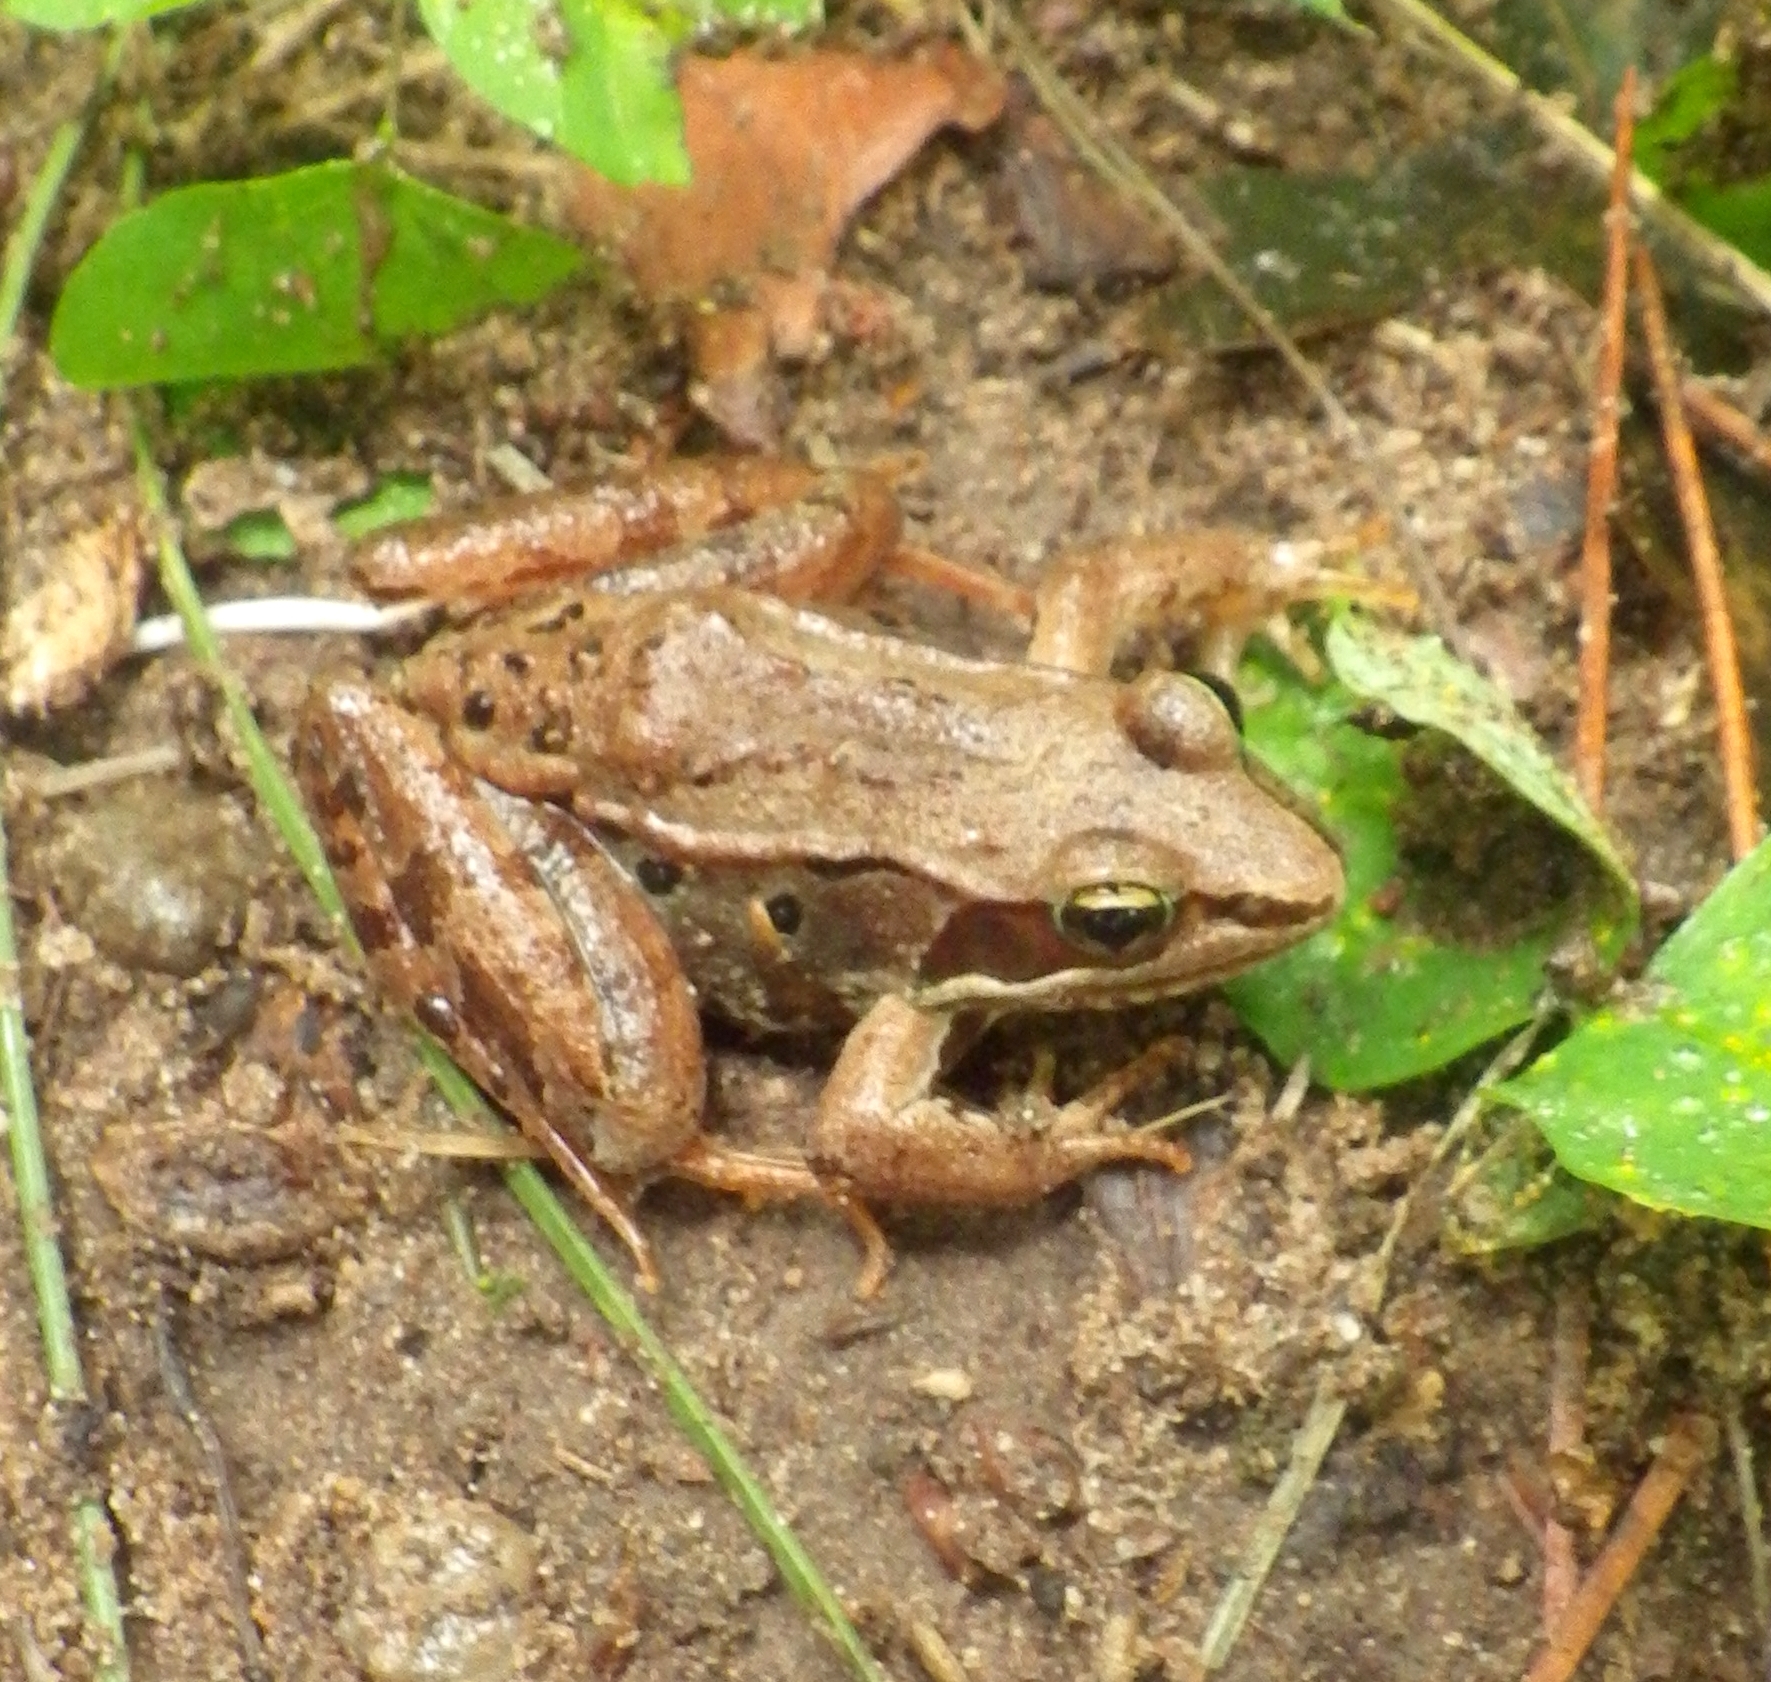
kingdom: Animalia
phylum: Chordata
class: Amphibia
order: Anura
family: Ranidae
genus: Lithobates
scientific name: Lithobates sylvaticus
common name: Wood frog
